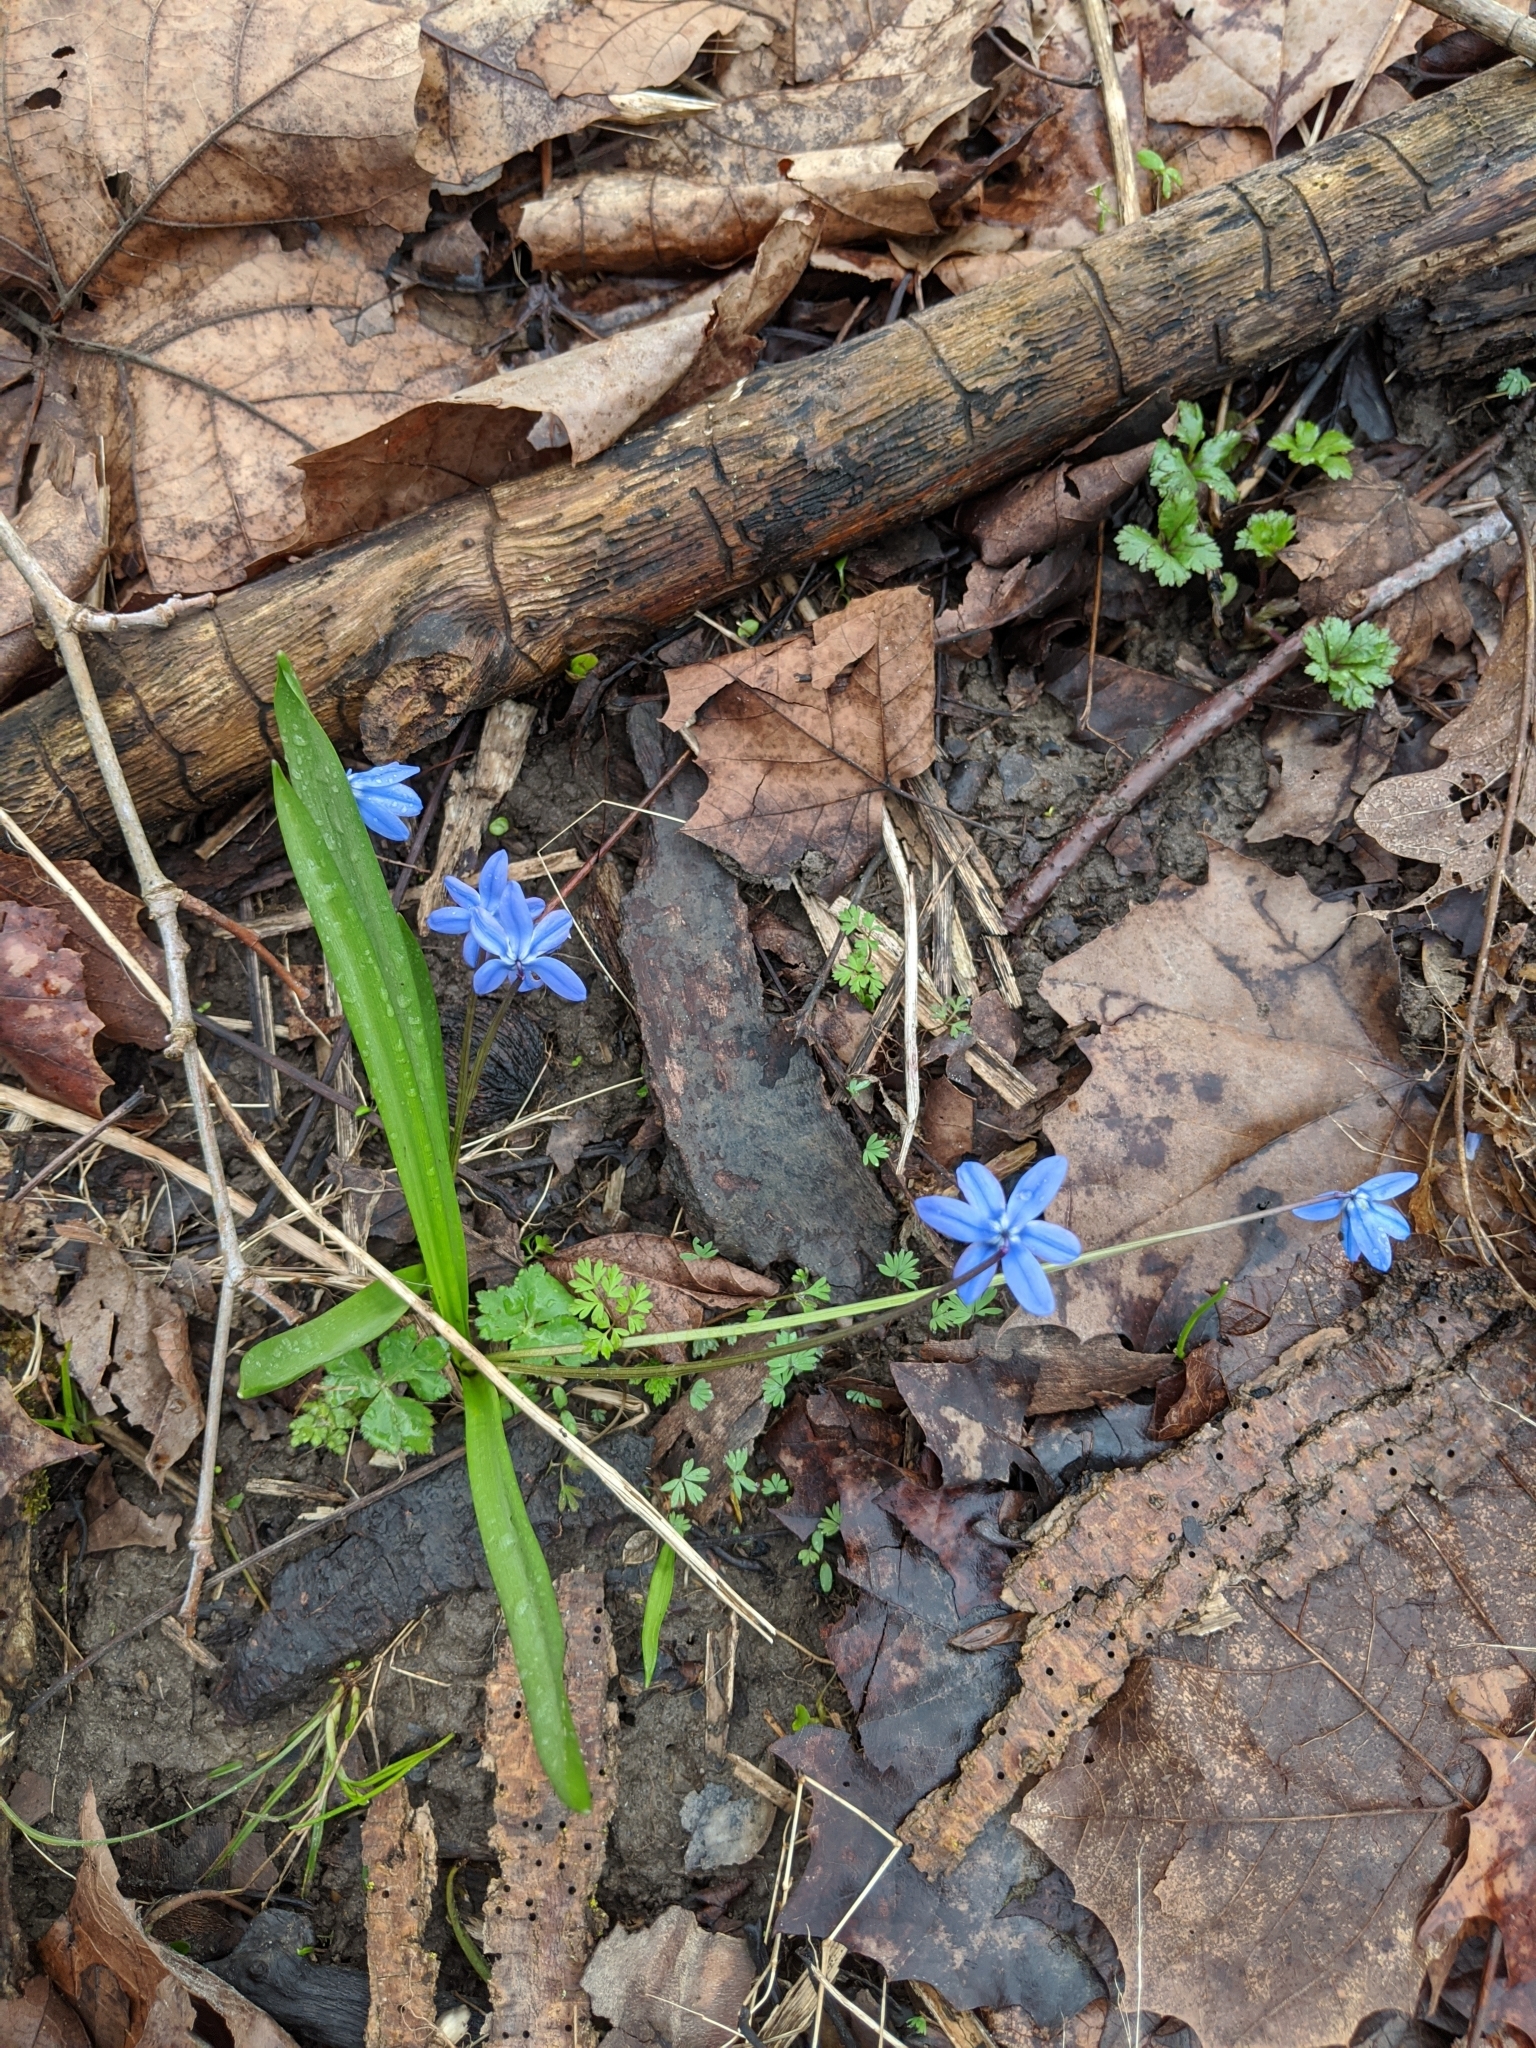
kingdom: Plantae
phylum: Tracheophyta
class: Liliopsida
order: Asparagales
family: Asparagaceae
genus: Scilla
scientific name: Scilla siberica
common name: Siberian squill
